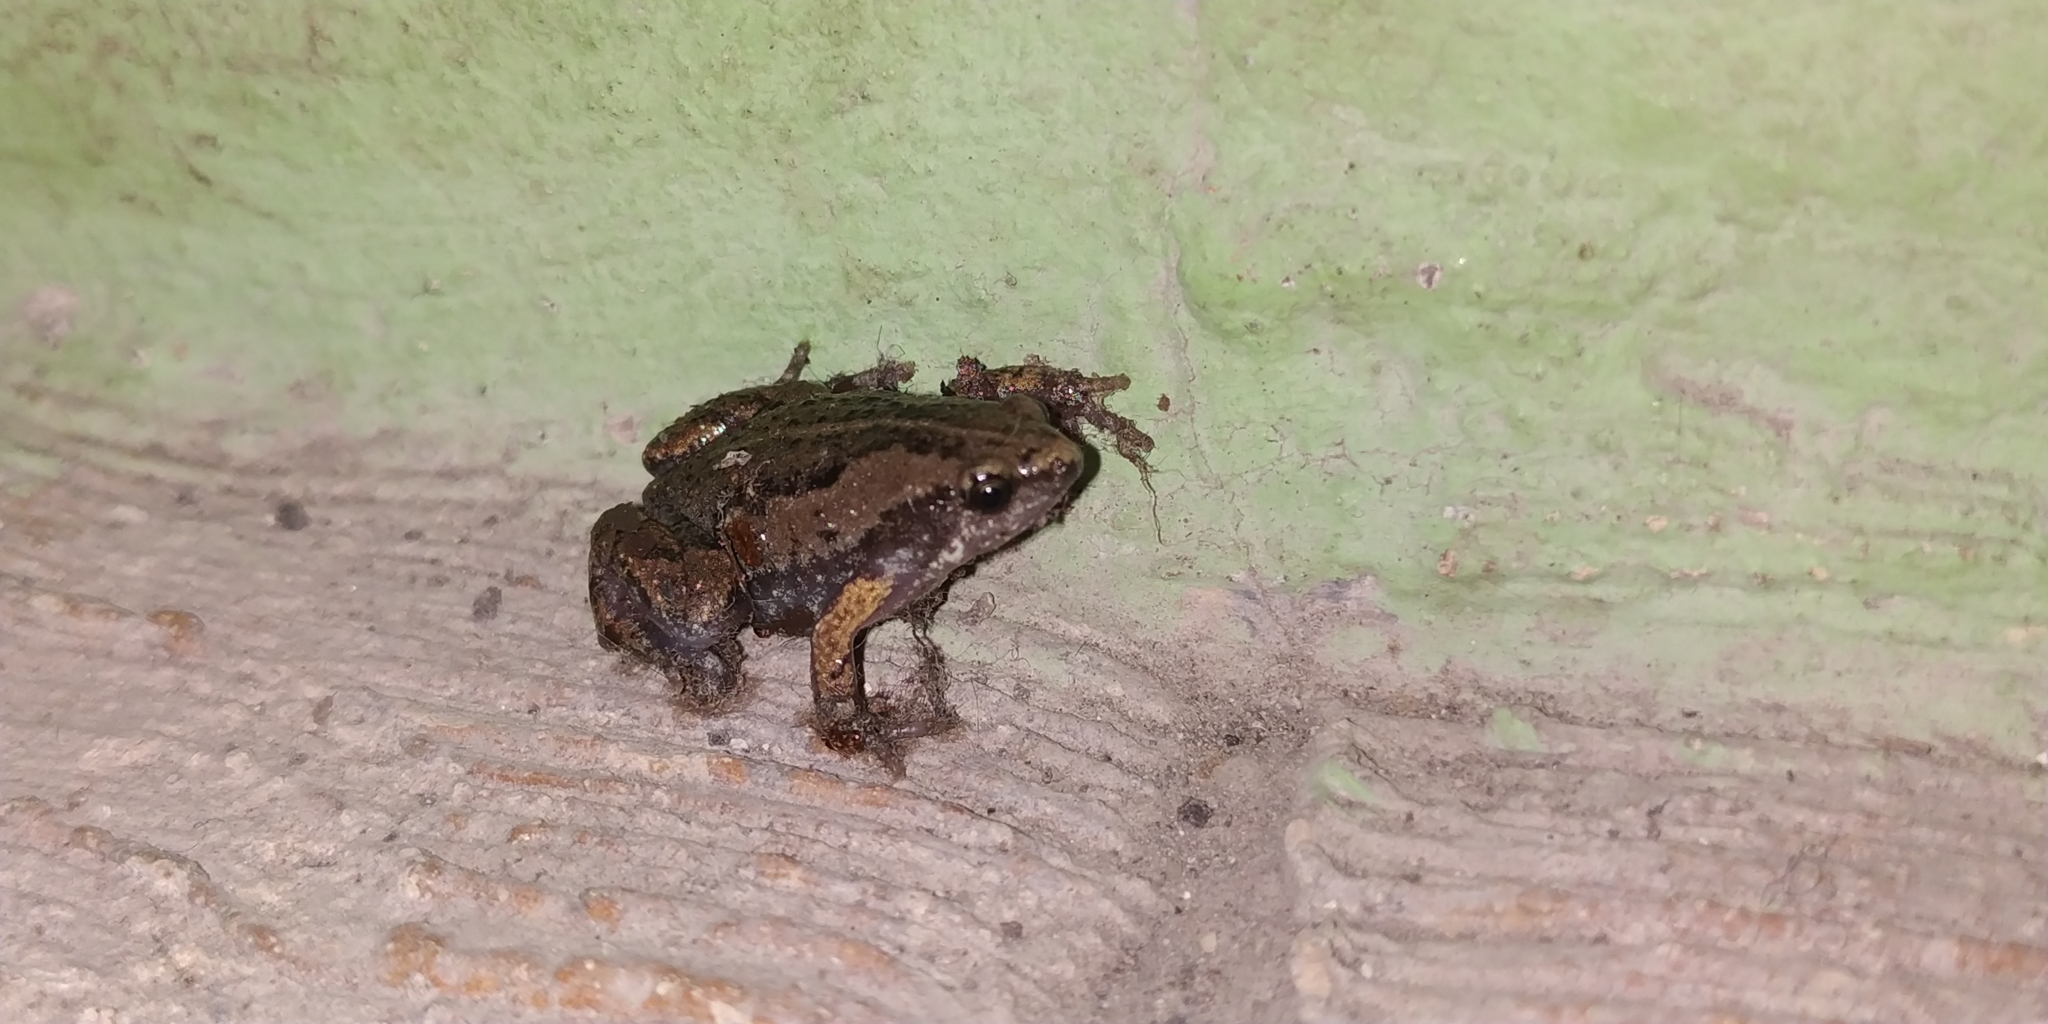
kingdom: Animalia
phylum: Chordata
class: Amphibia
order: Anura
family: Microhylidae
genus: Hypopachus
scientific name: Hypopachus ustus
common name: Two-spade narrowmouth toad
